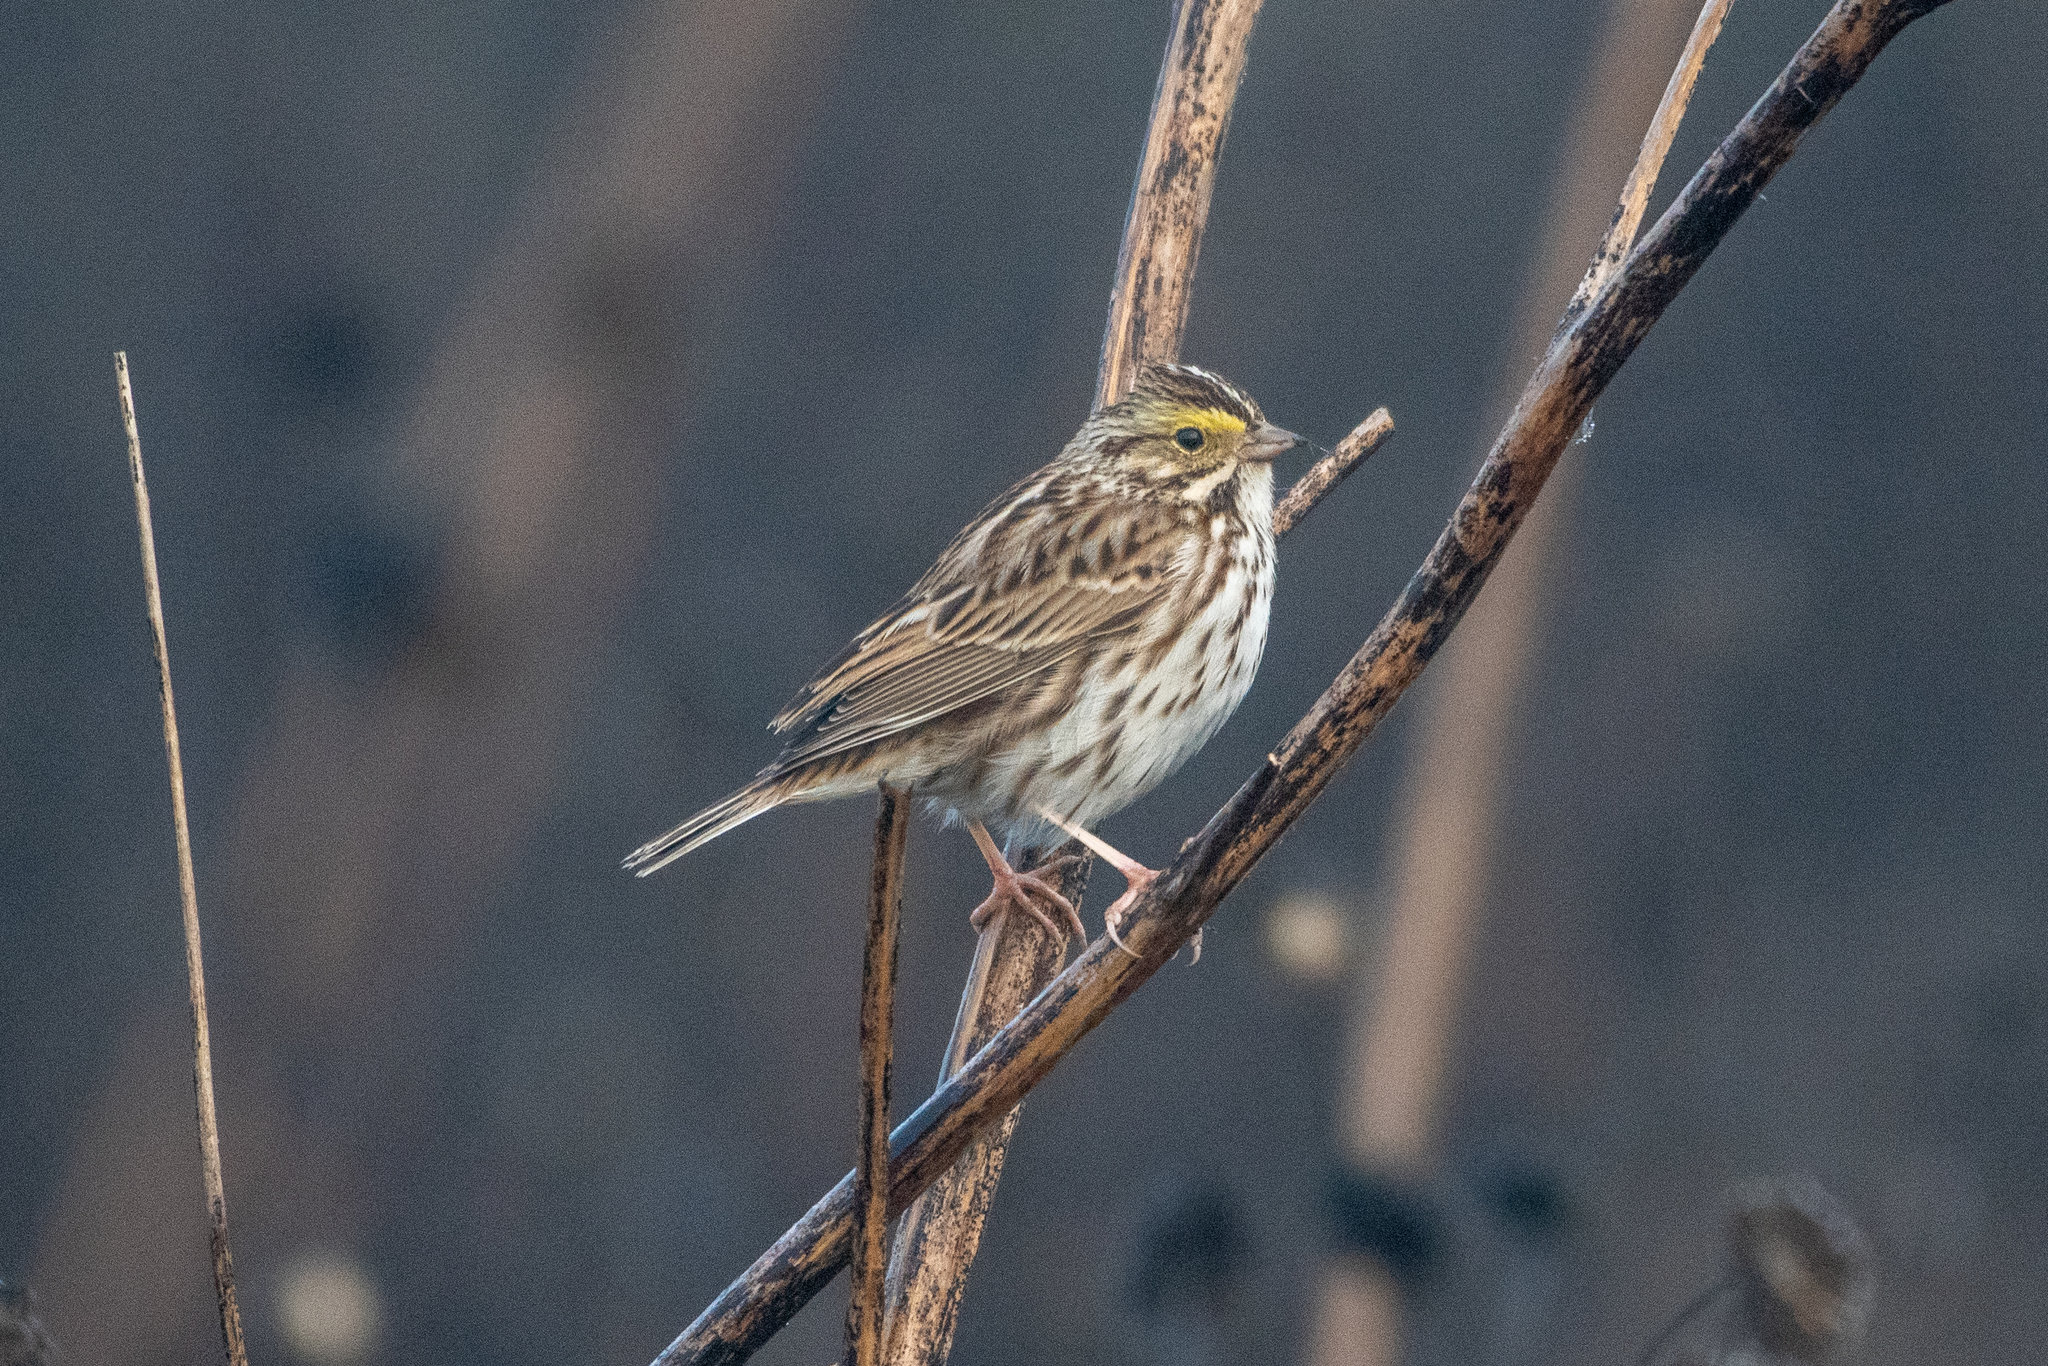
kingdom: Animalia
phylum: Chordata
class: Aves
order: Passeriformes
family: Passerellidae
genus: Passerculus
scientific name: Passerculus sandwichensis
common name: Savannah sparrow
